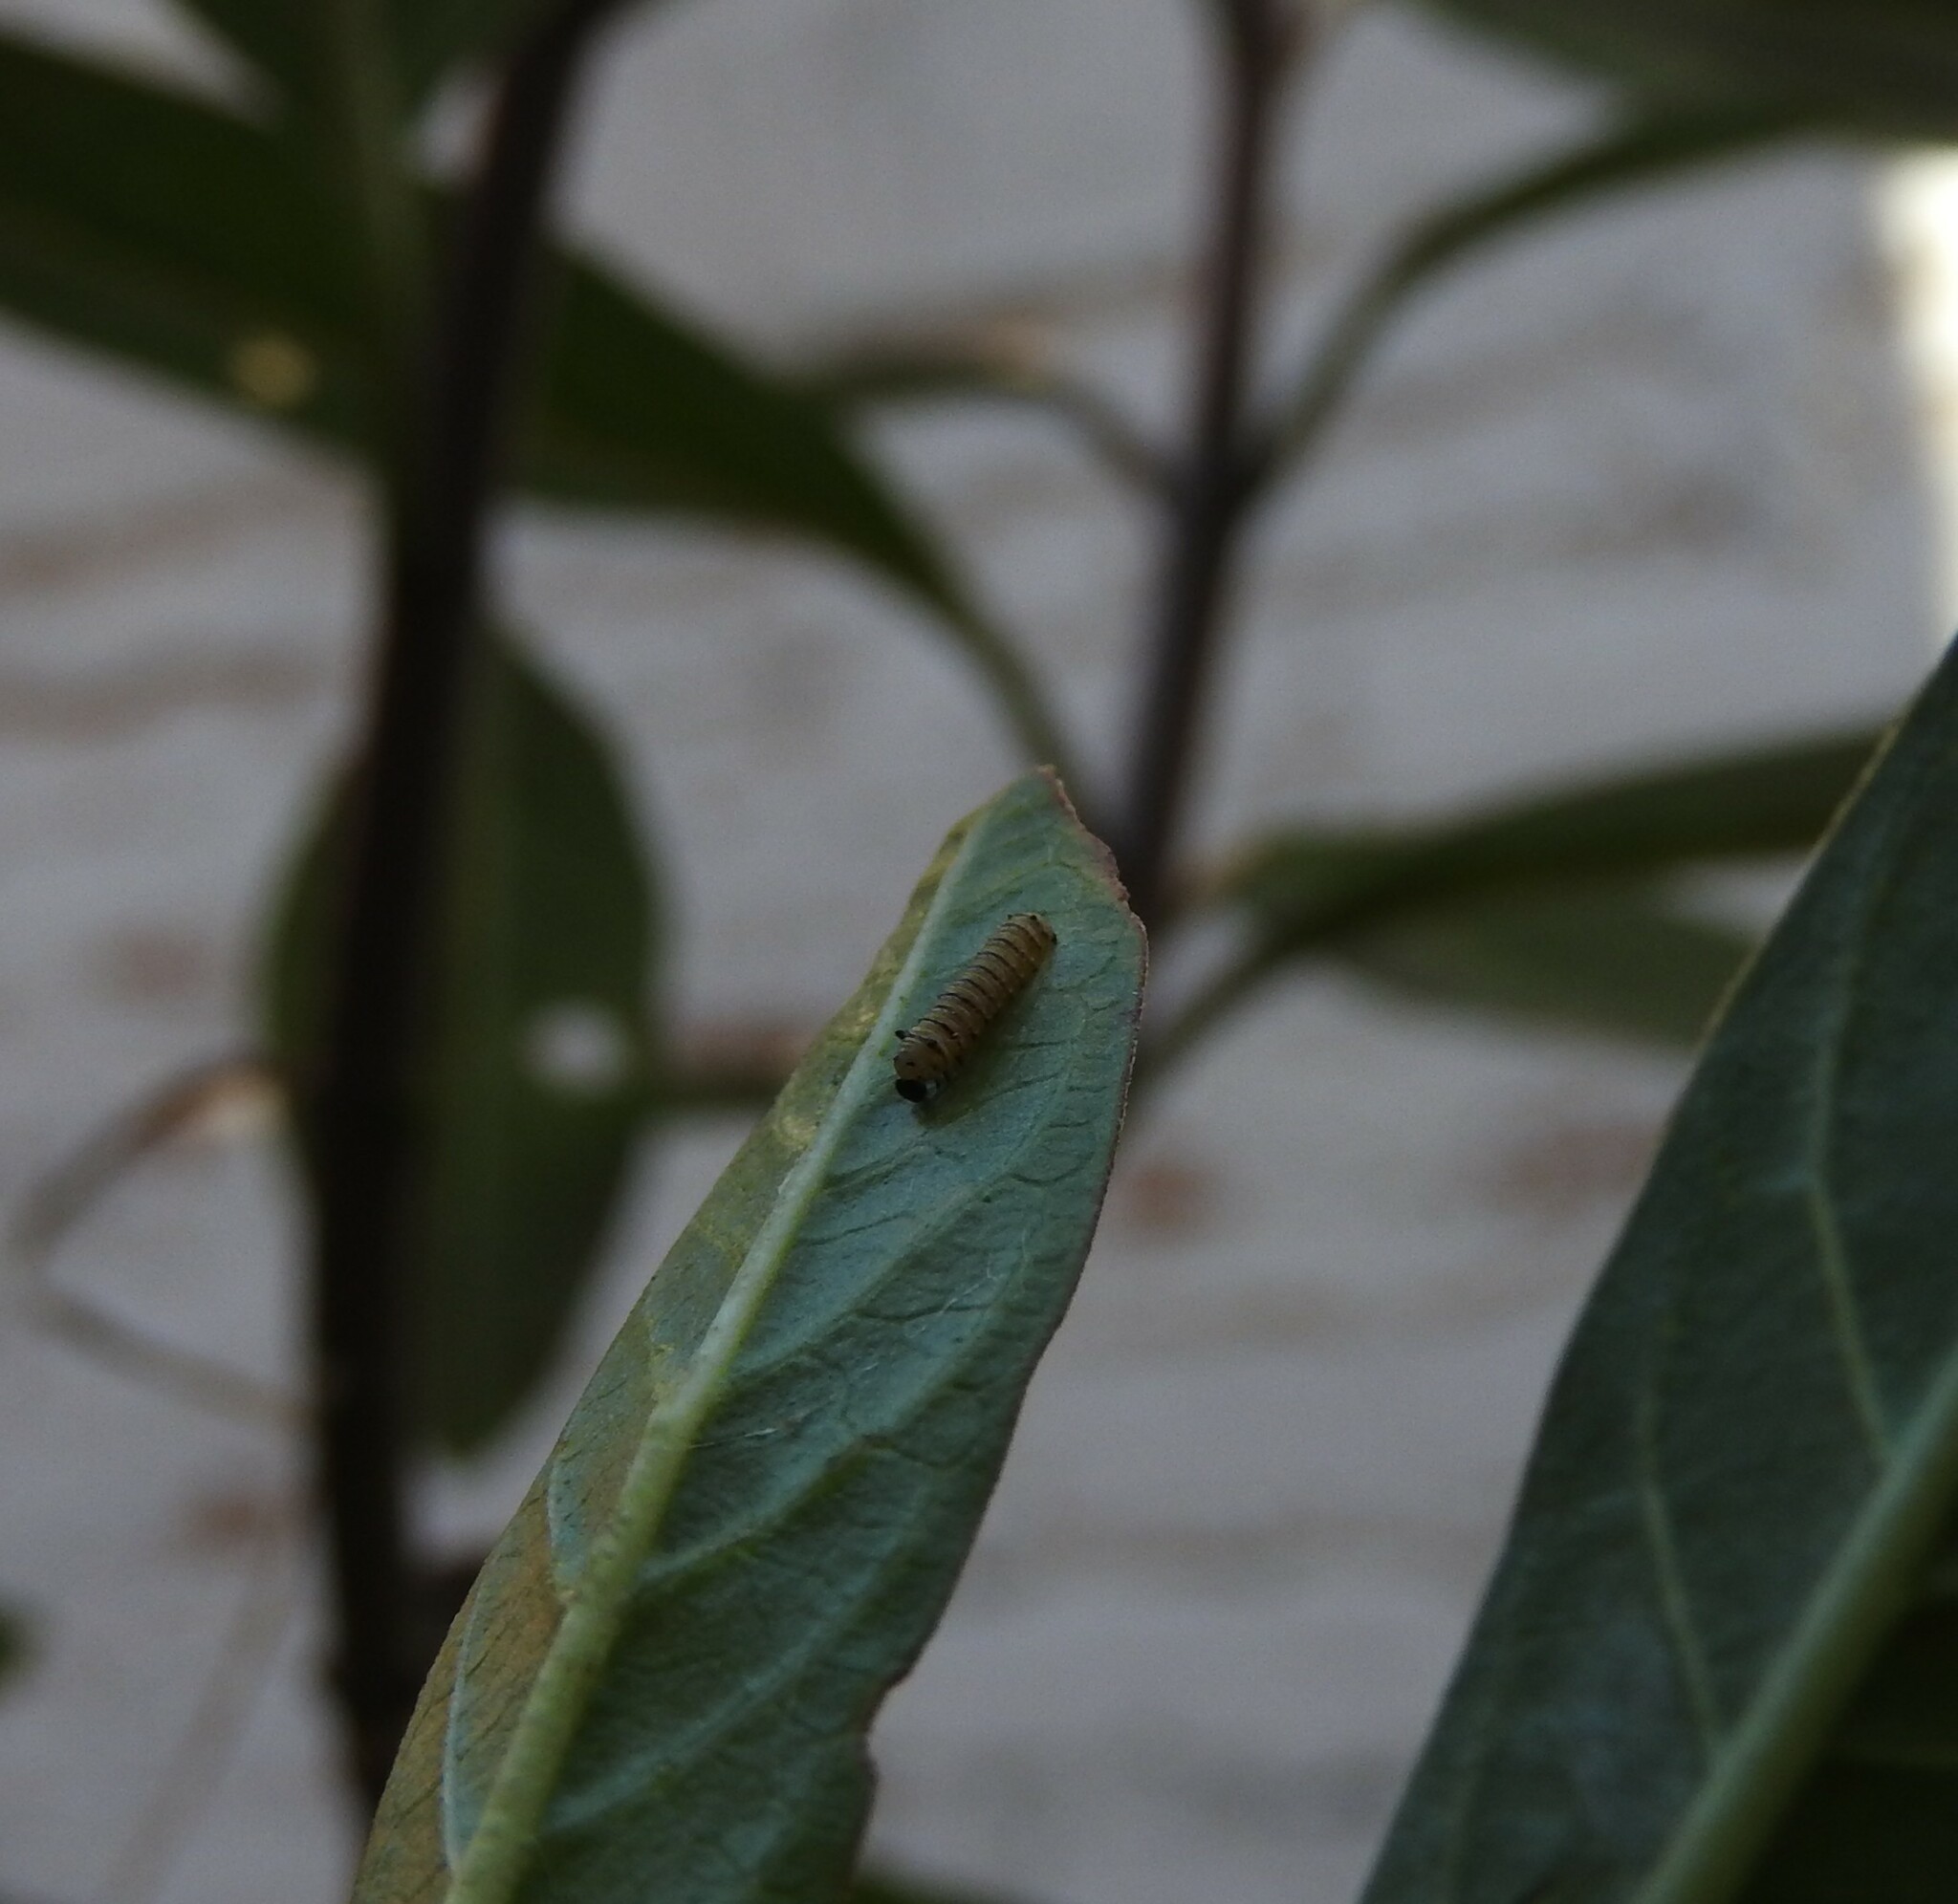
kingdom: Animalia
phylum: Arthropoda
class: Insecta
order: Lepidoptera
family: Nymphalidae
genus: Danaus
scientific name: Danaus plexippus
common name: Monarch
